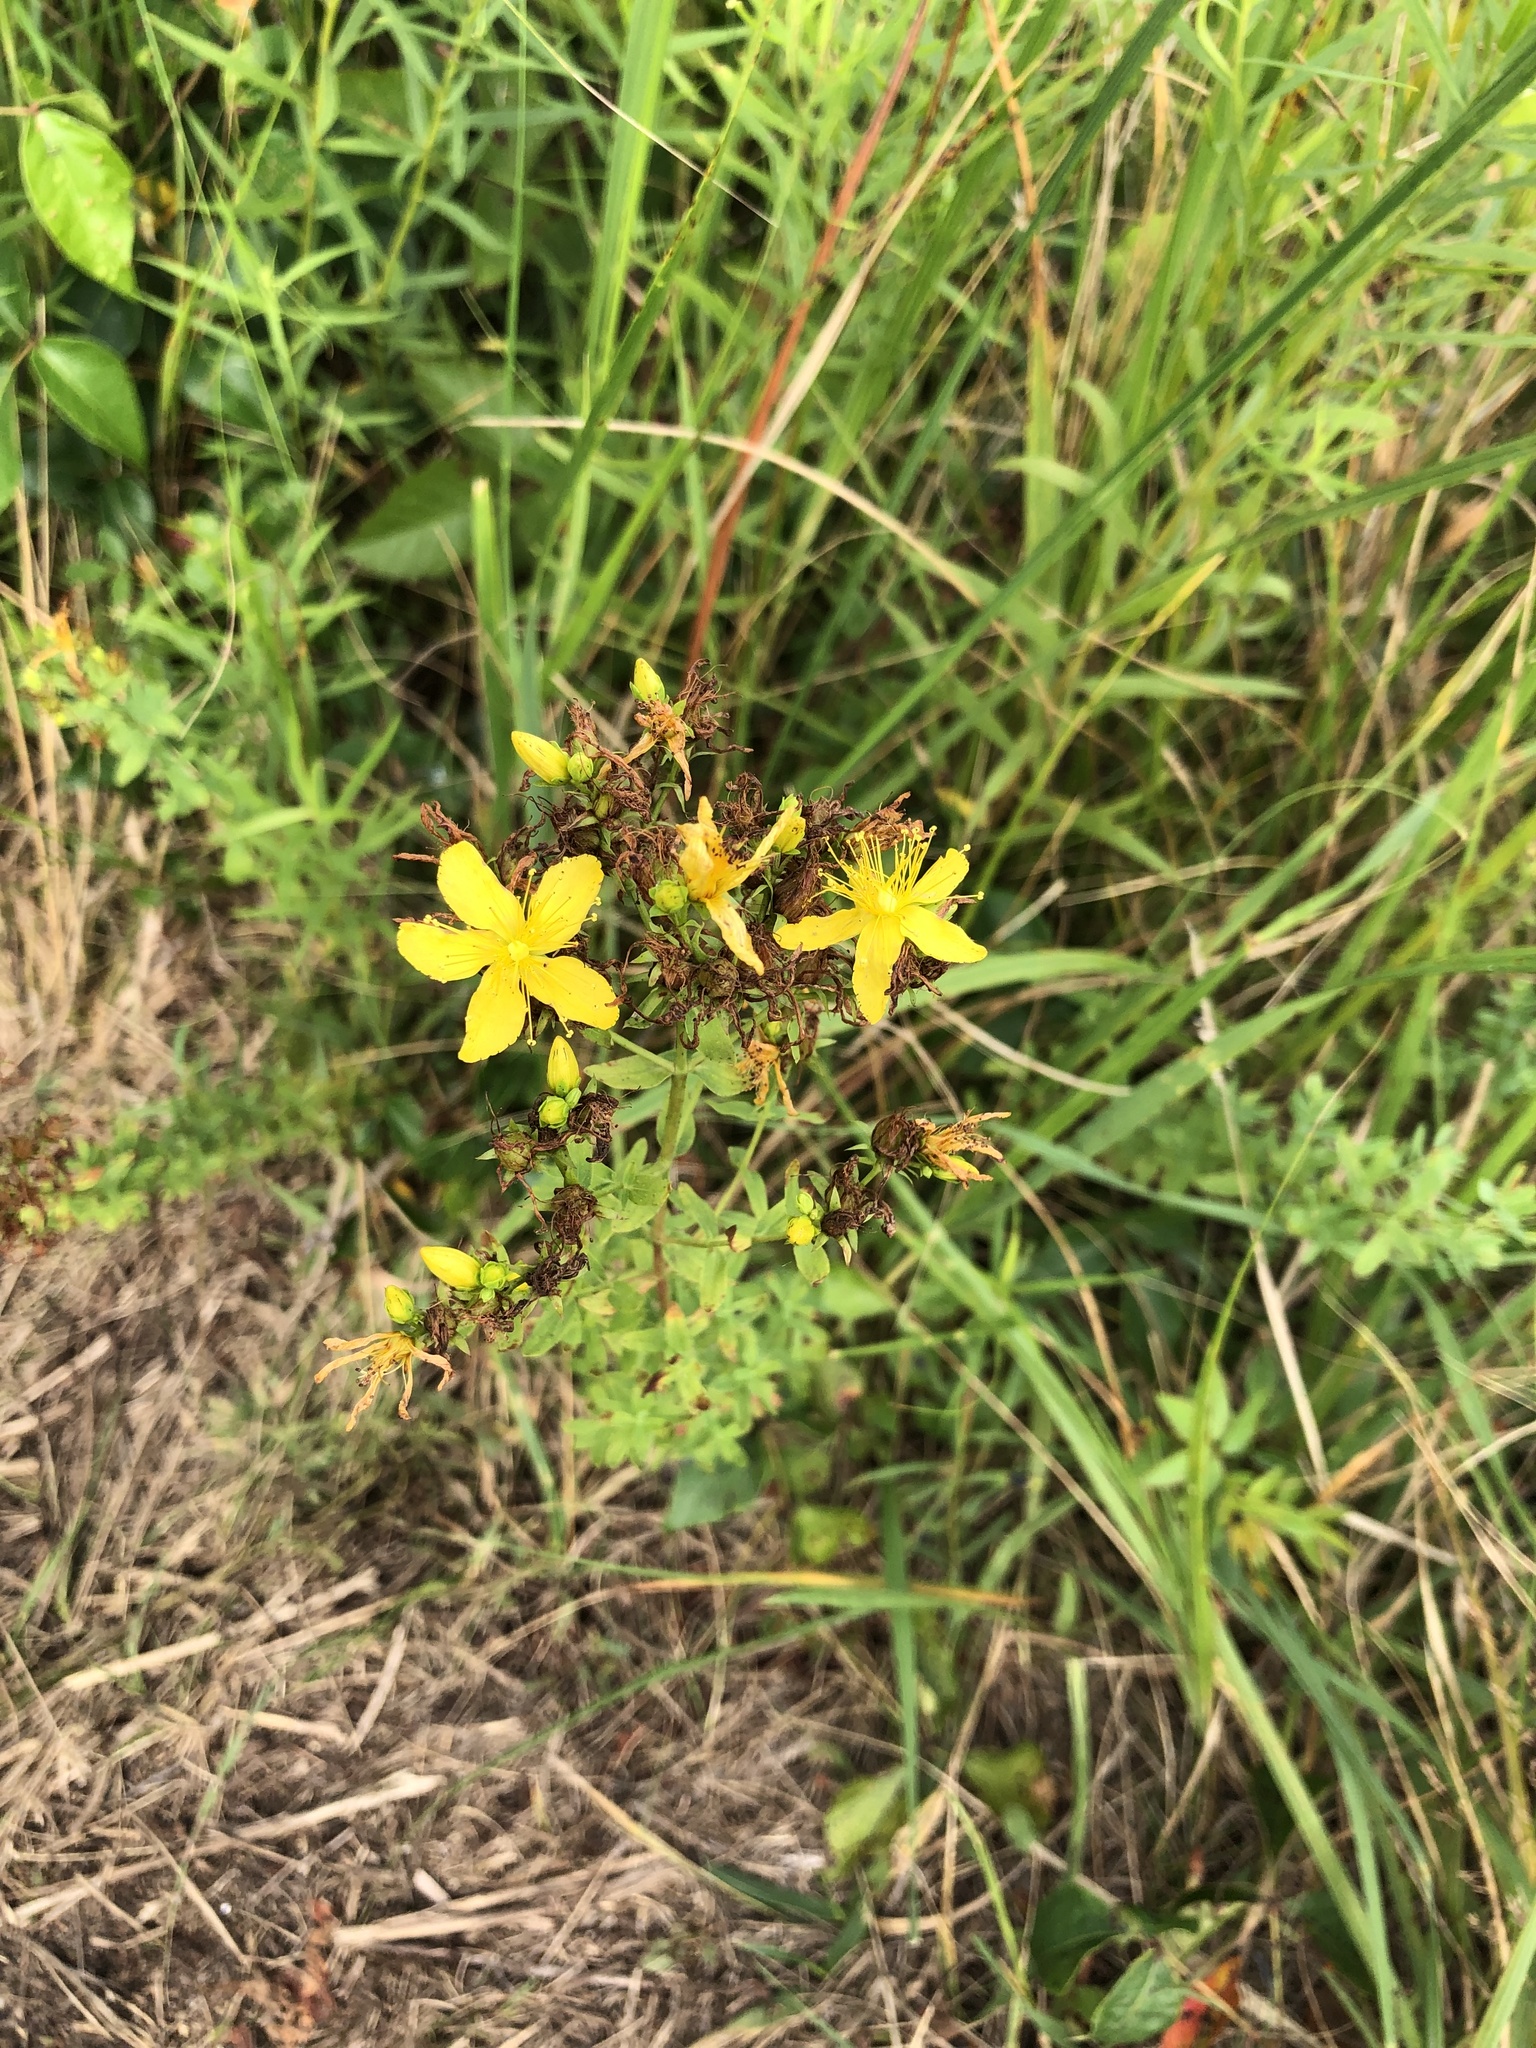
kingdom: Plantae
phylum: Tracheophyta
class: Magnoliopsida
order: Malpighiales
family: Hypericaceae
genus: Hypericum
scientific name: Hypericum perforatum
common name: Common st. johnswort
